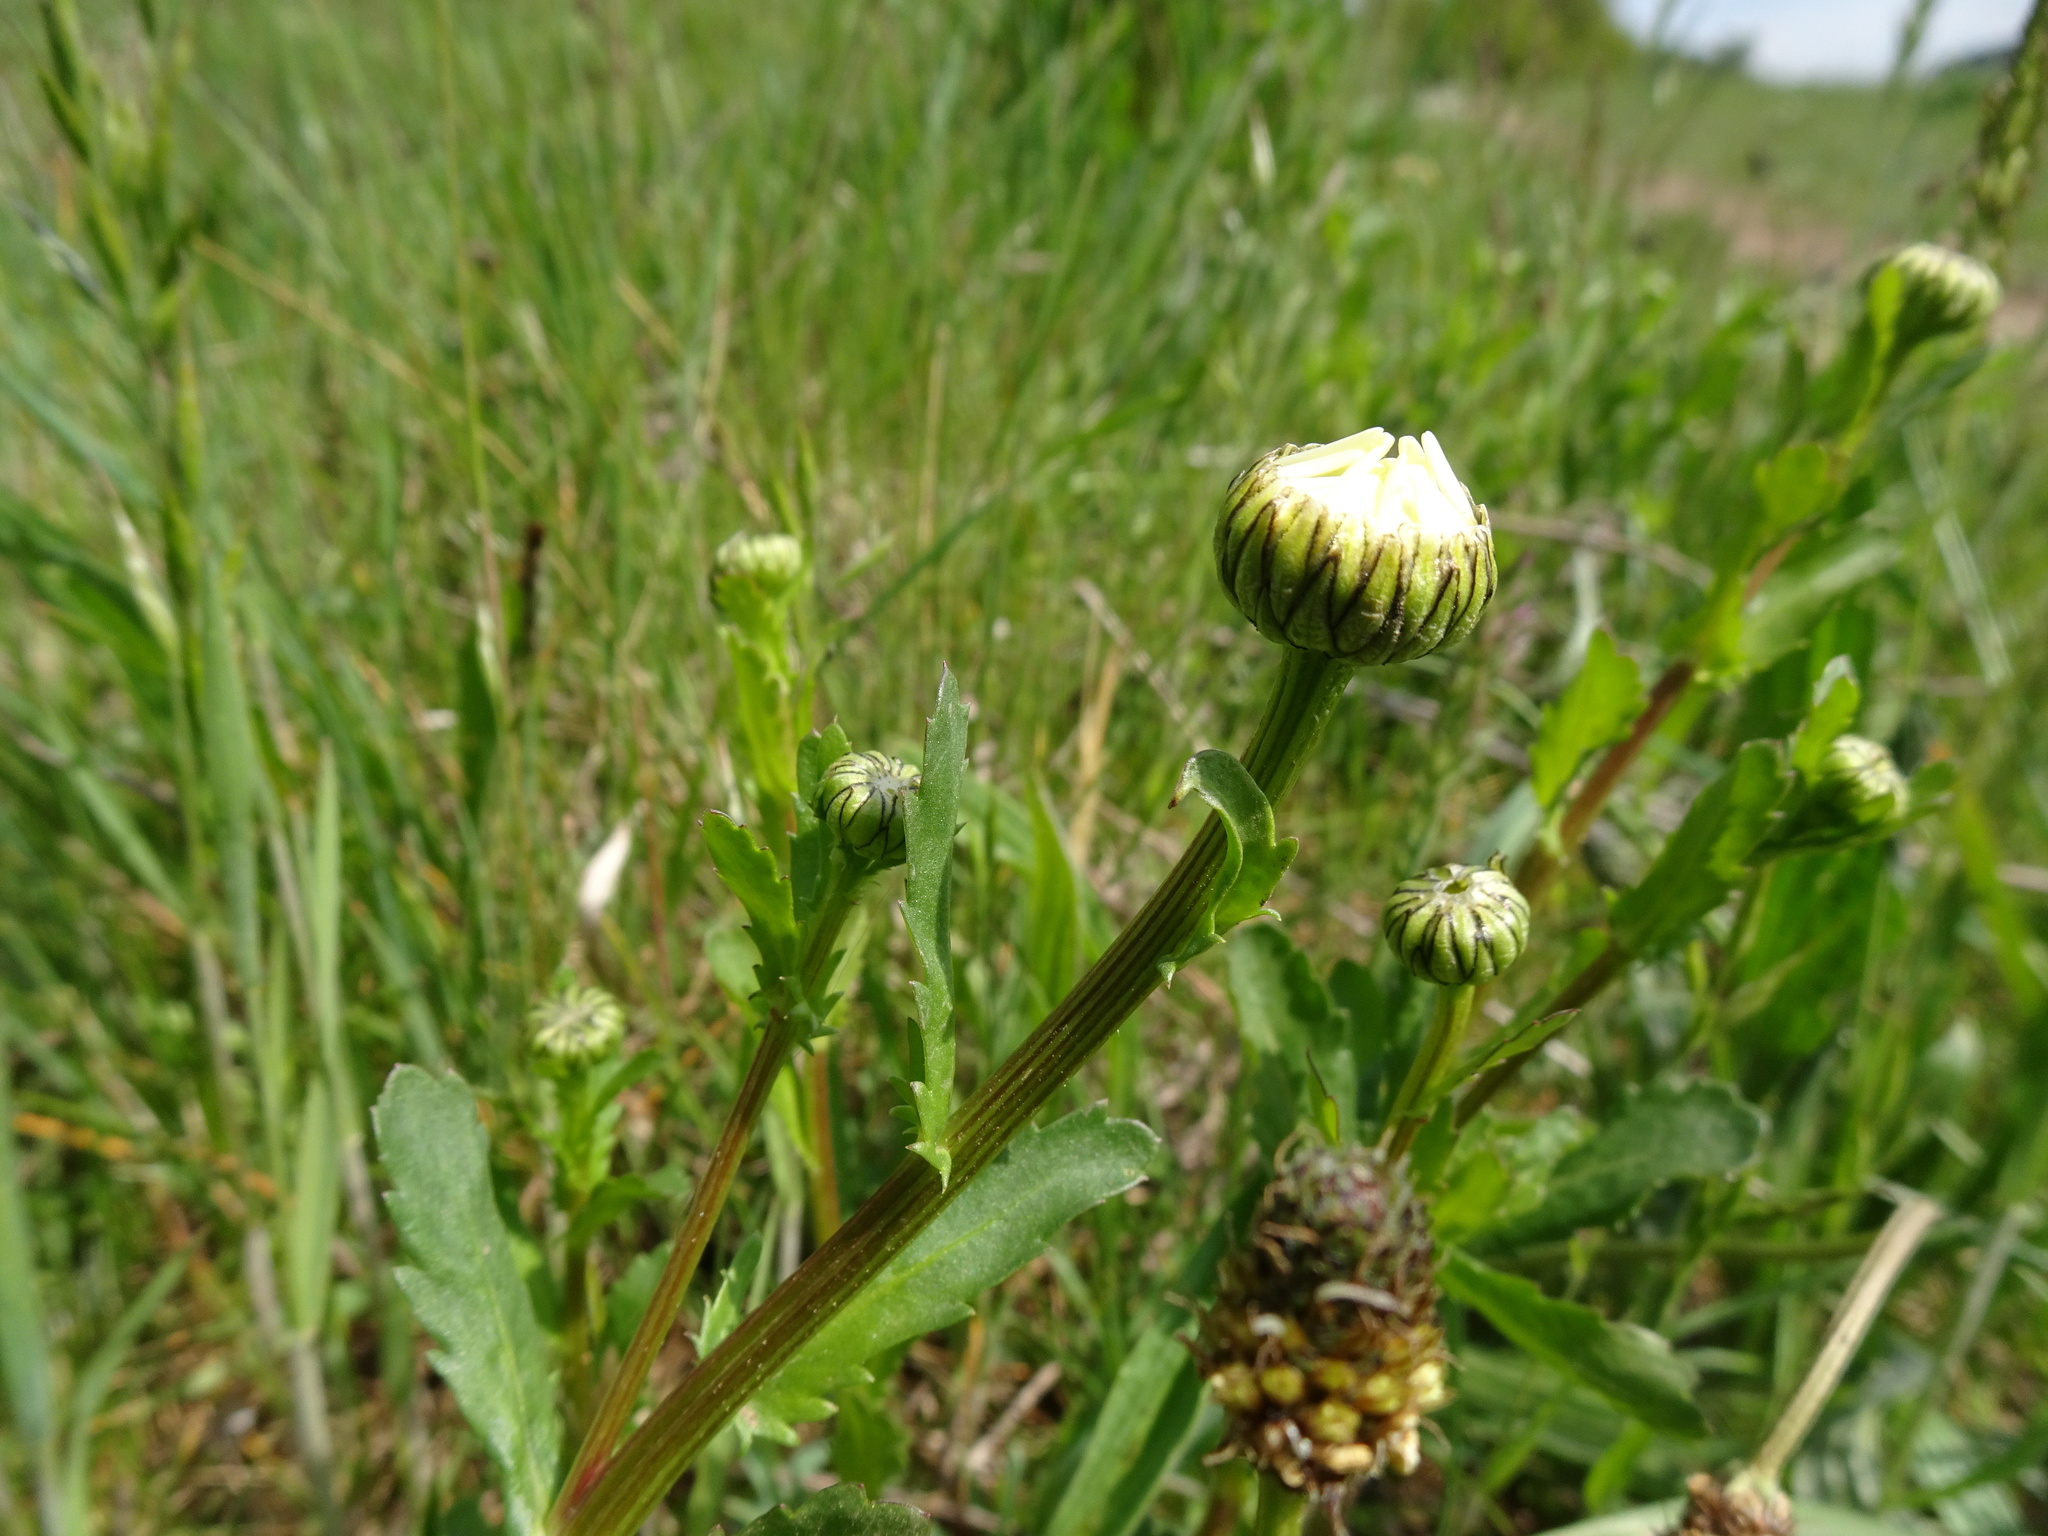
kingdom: Plantae
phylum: Tracheophyta
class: Magnoliopsida
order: Asterales
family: Asteraceae
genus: Leucanthemum
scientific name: Leucanthemum vulgare
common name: Oxeye daisy
